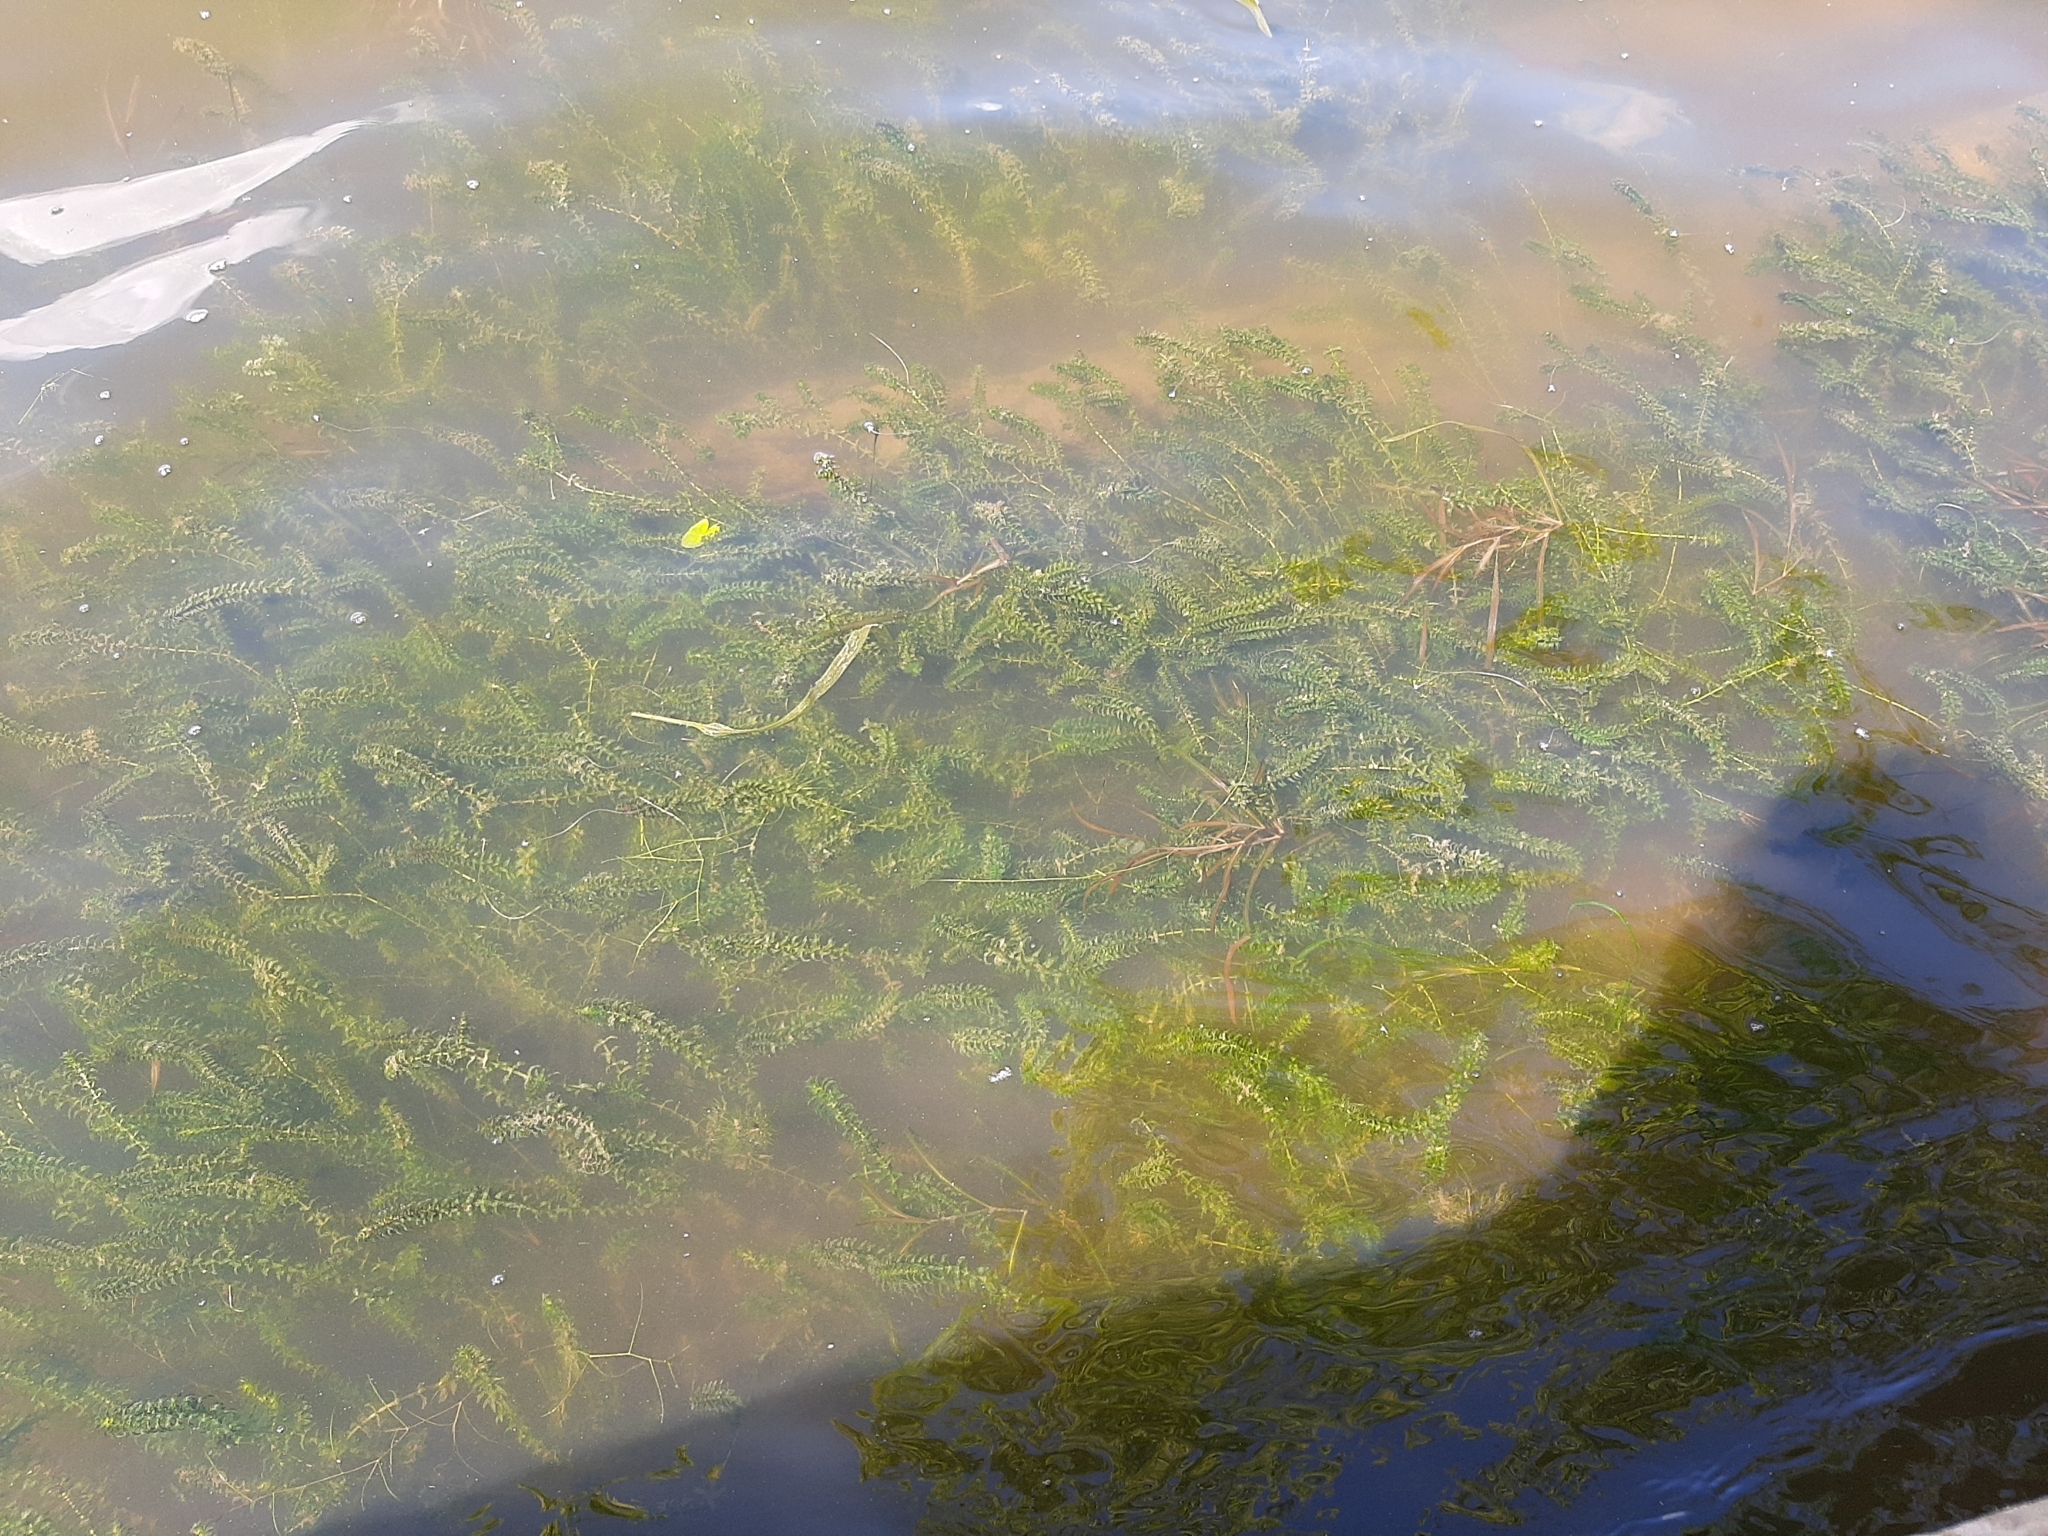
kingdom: Plantae
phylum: Tracheophyta
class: Liliopsida
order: Alismatales
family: Hydrocharitaceae
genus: Elodea
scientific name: Elodea canadensis
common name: Canadian waterweed
